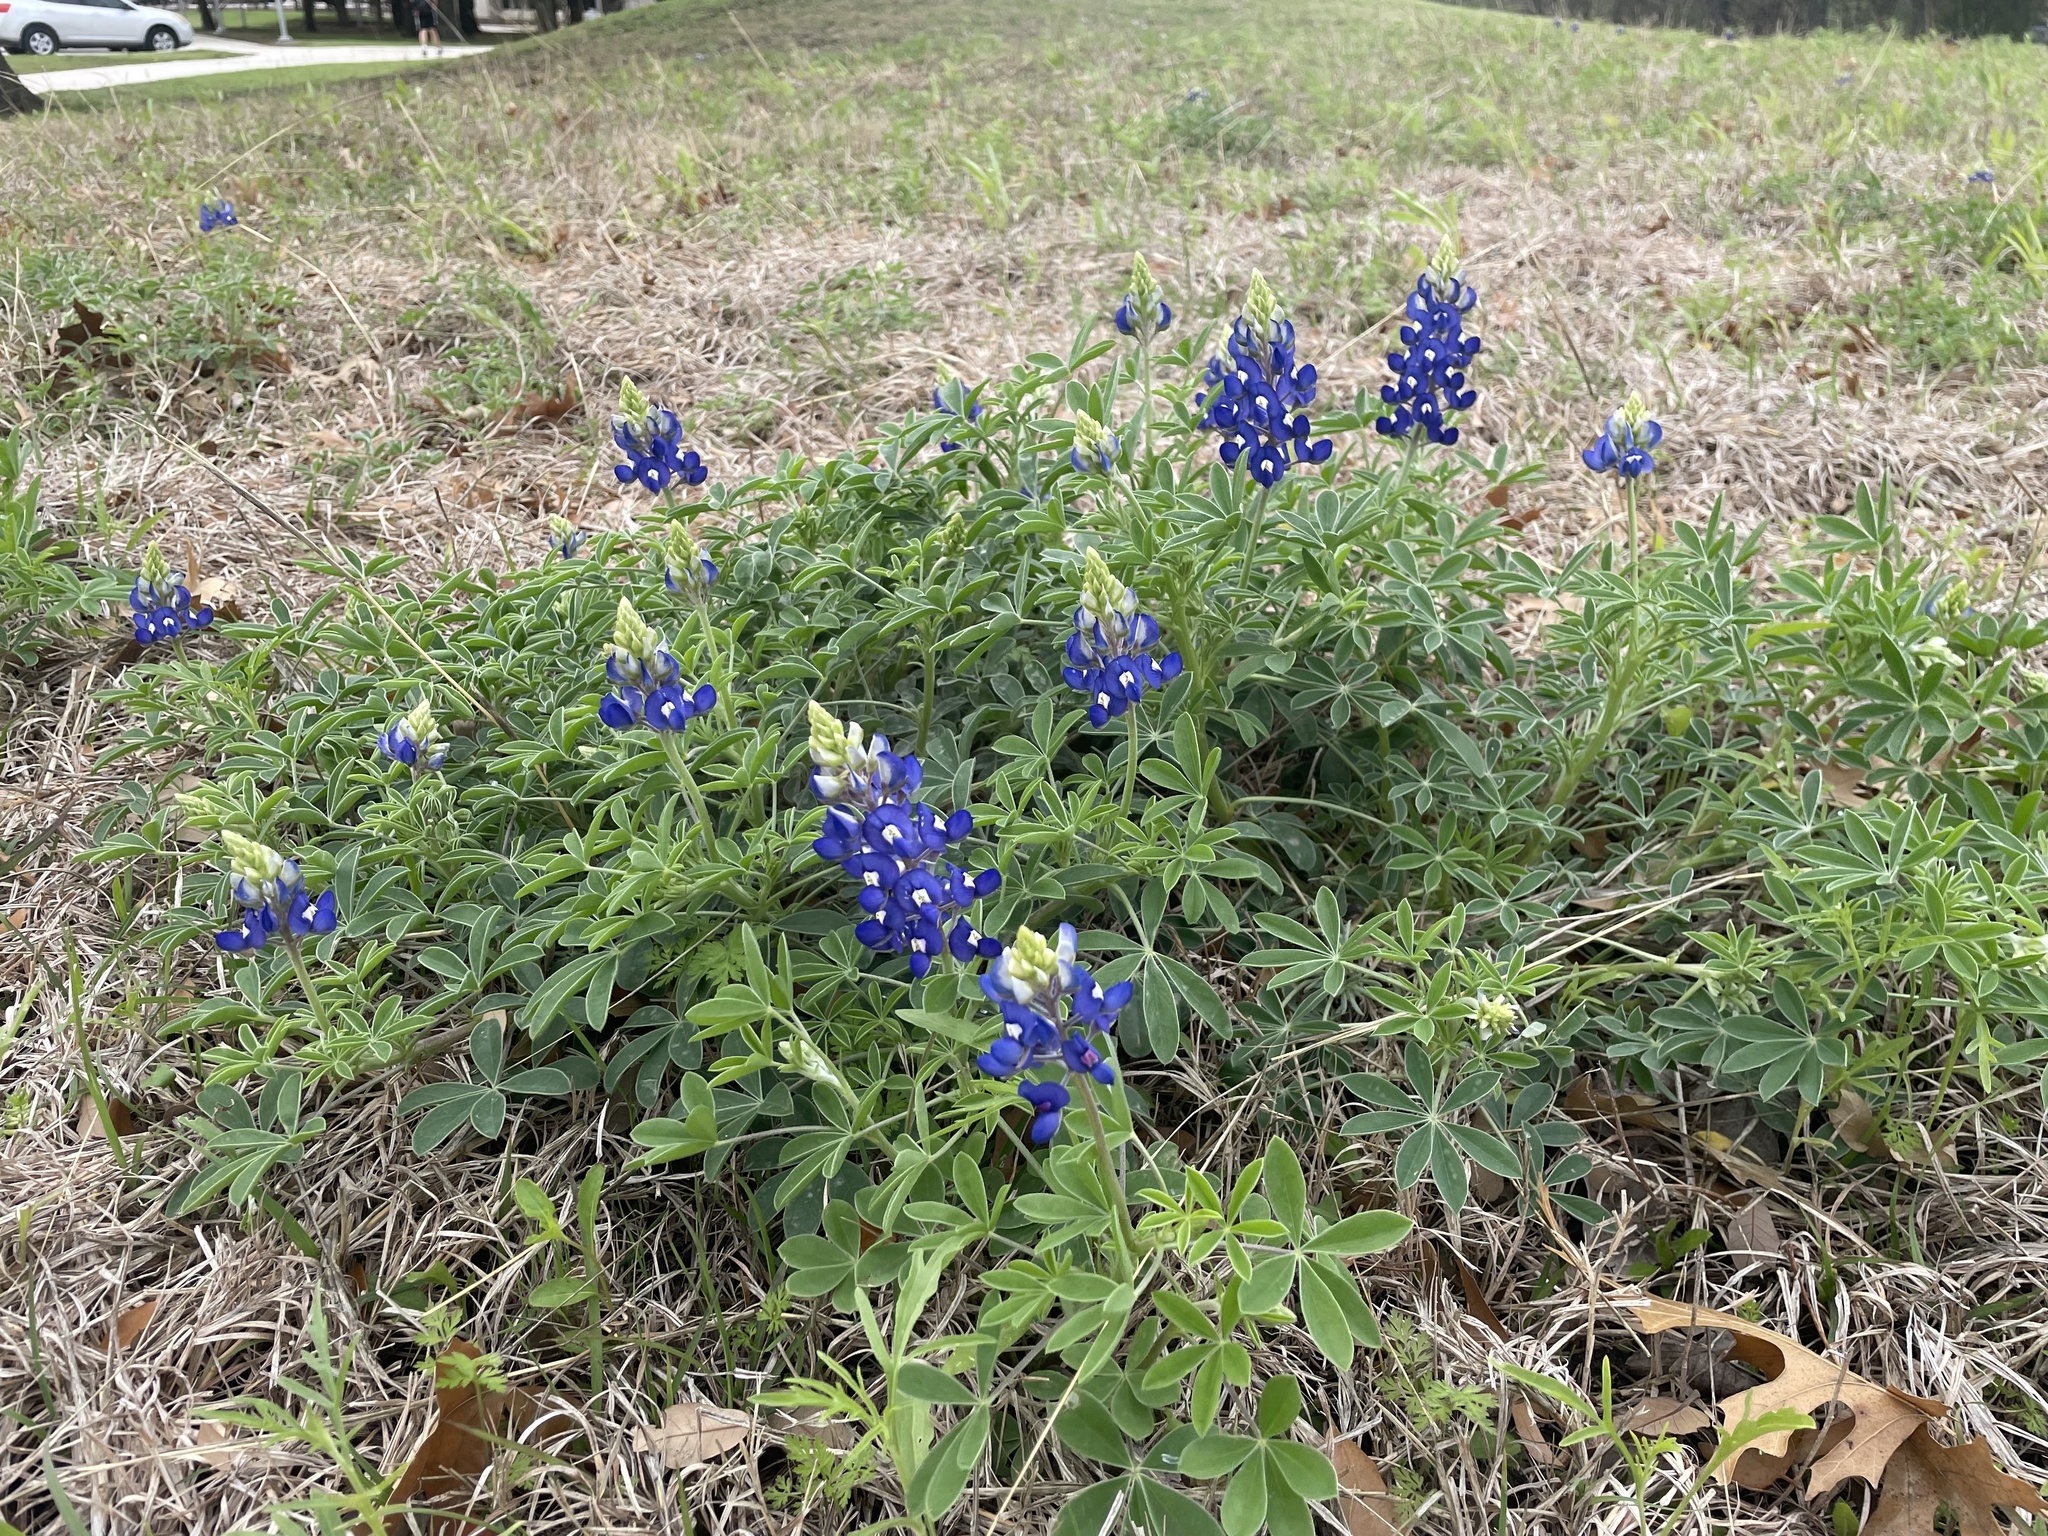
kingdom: Plantae
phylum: Tracheophyta
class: Magnoliopsida
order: Fabales
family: Fabaceae
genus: Lupinus
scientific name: Lupinus texensis
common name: Texas bluebonnet
